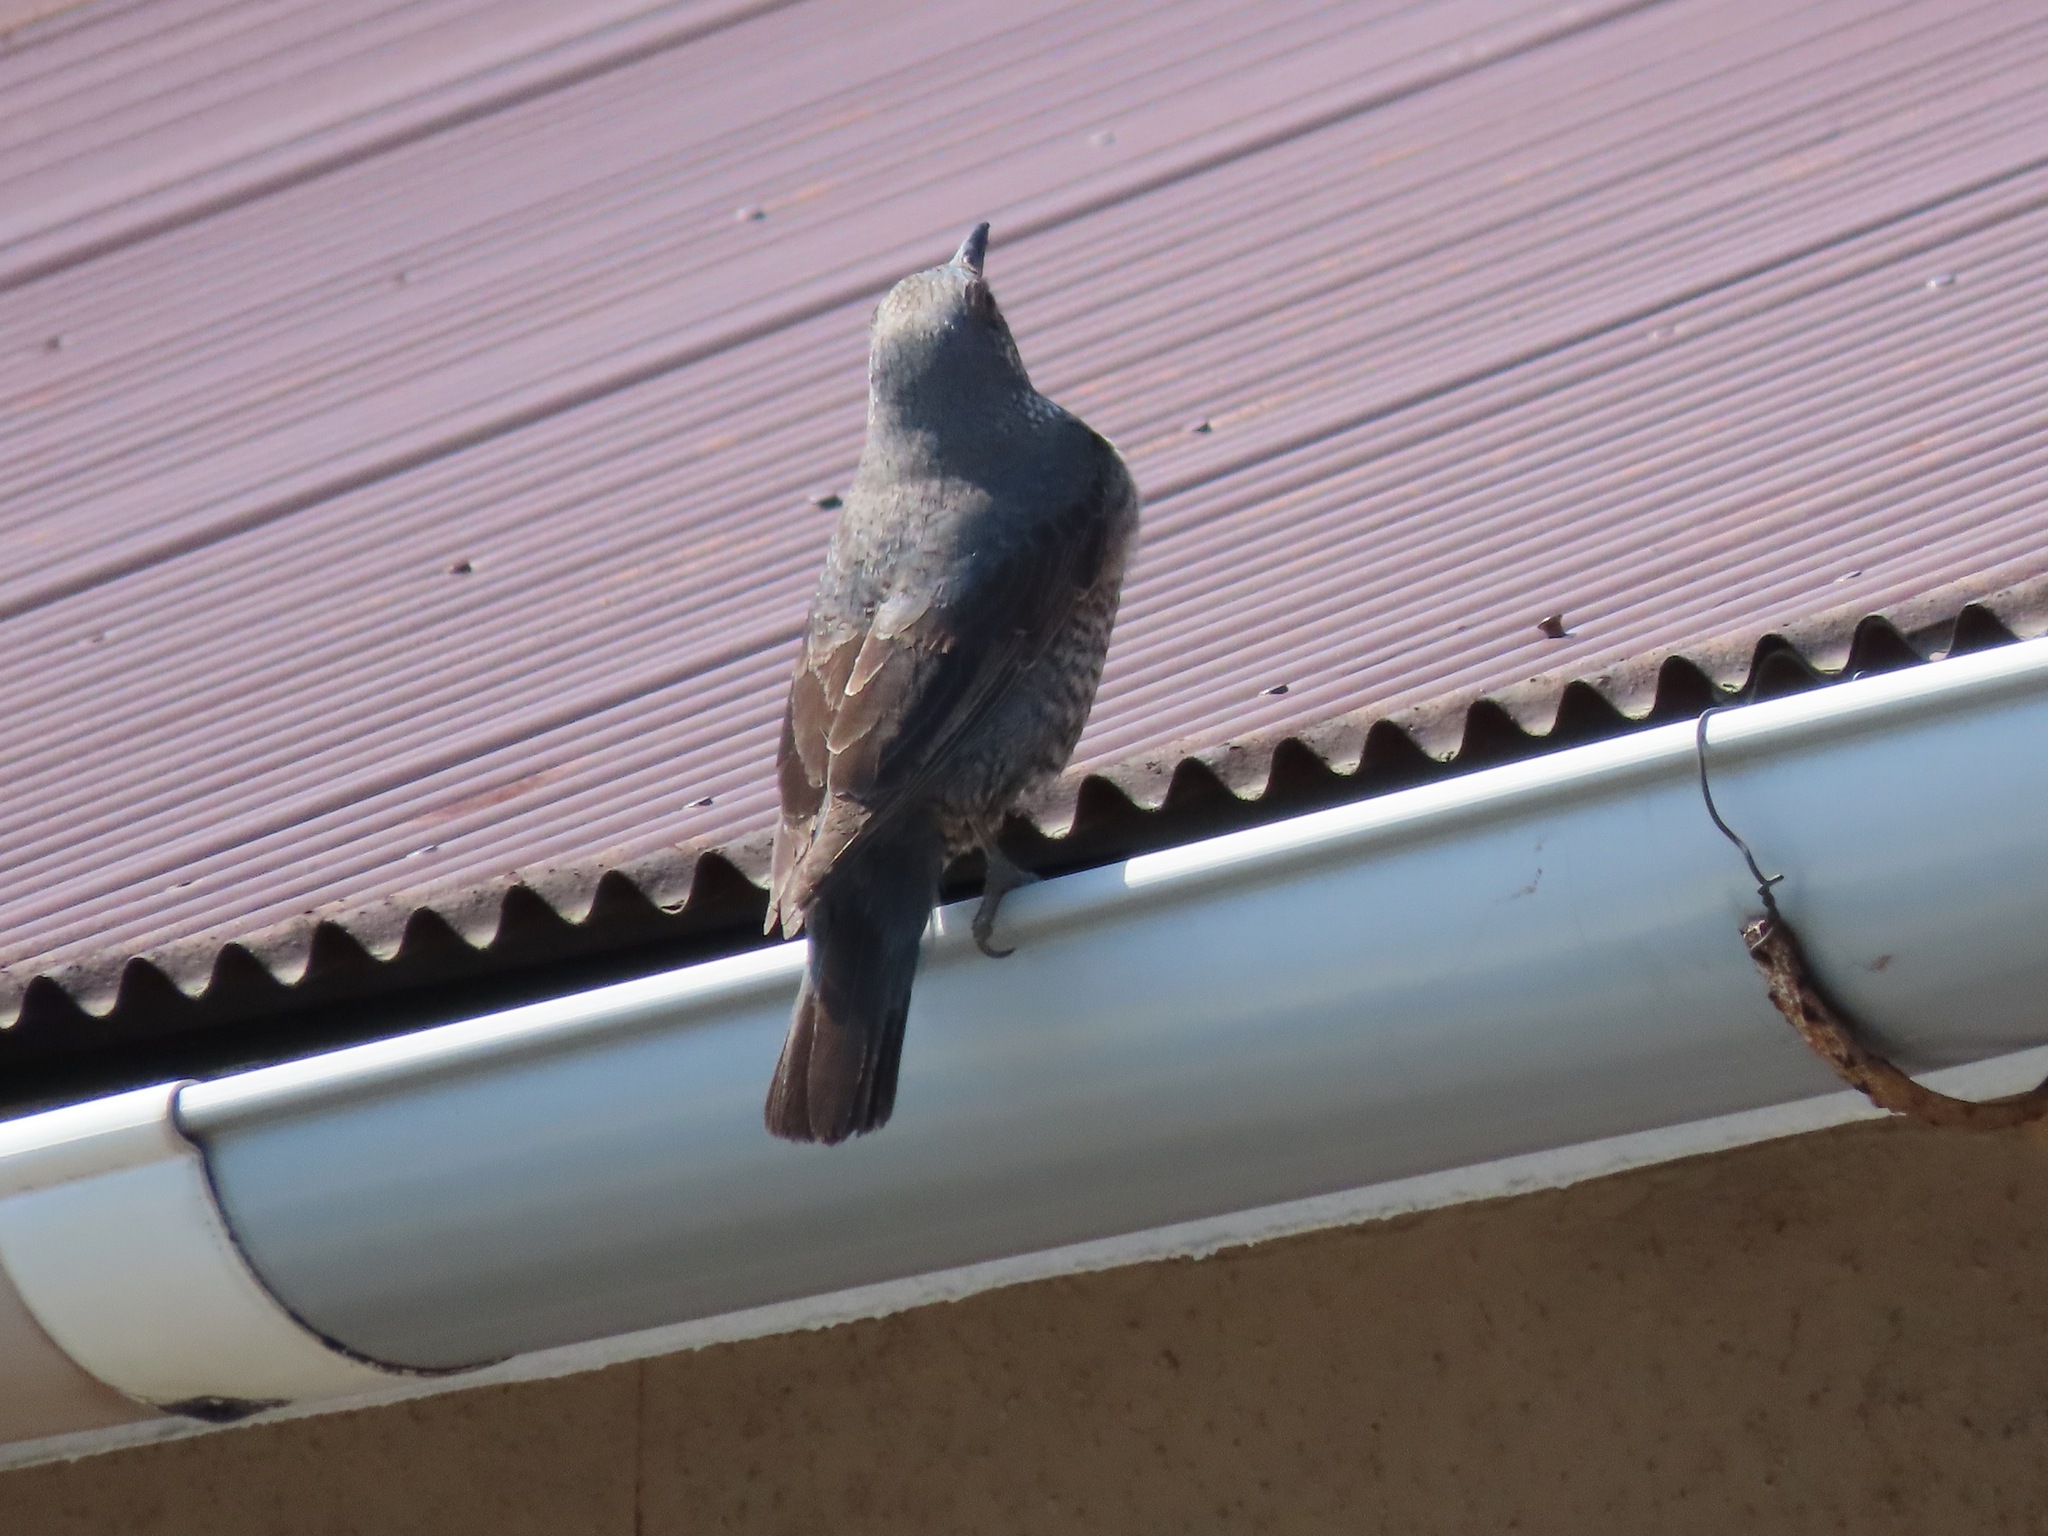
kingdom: Animalia
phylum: Chordata
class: Aves
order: Passeriformes
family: Muscicapidae
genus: Monticola
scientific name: Monticola solitarius
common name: Blue rock thrush
